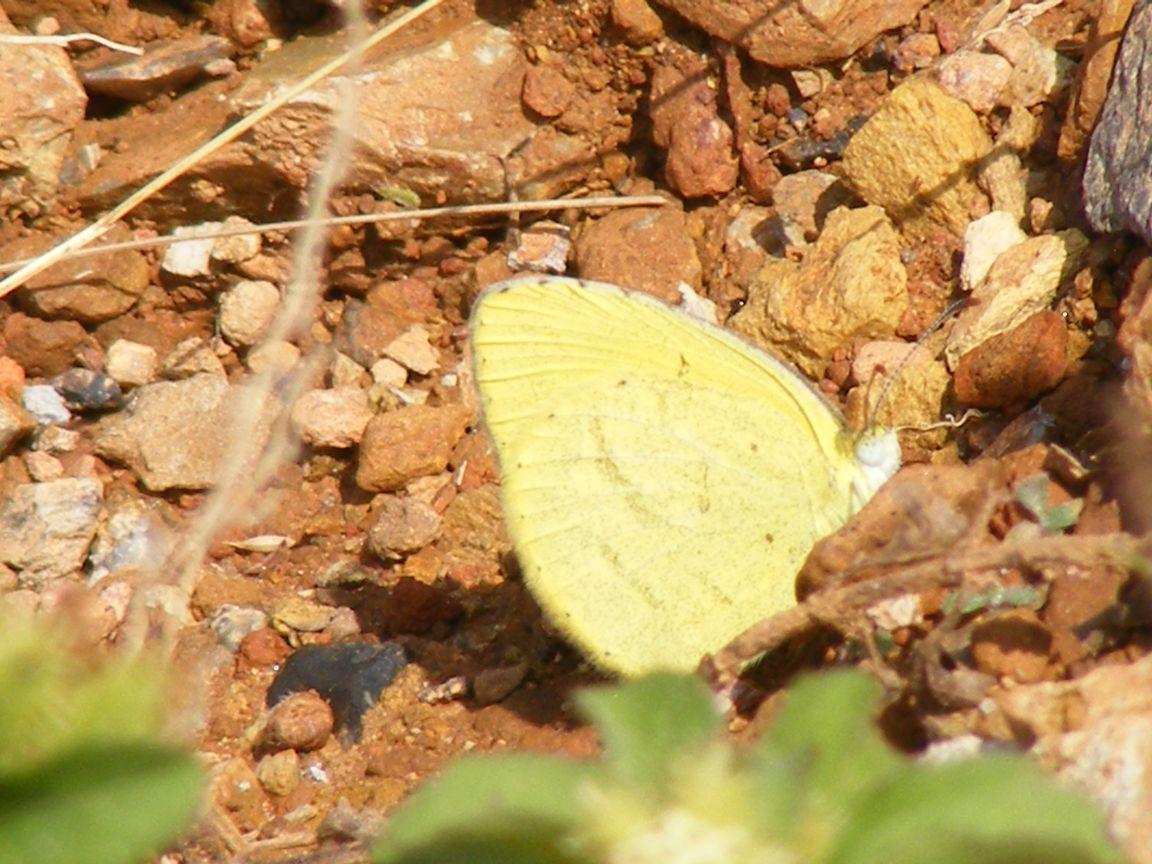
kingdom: Animalia
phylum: Arthropoda
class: Insecta
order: Lepidoptera
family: Pieridae
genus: Eurema
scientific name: Eurema brigitta
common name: Small grass yellow
